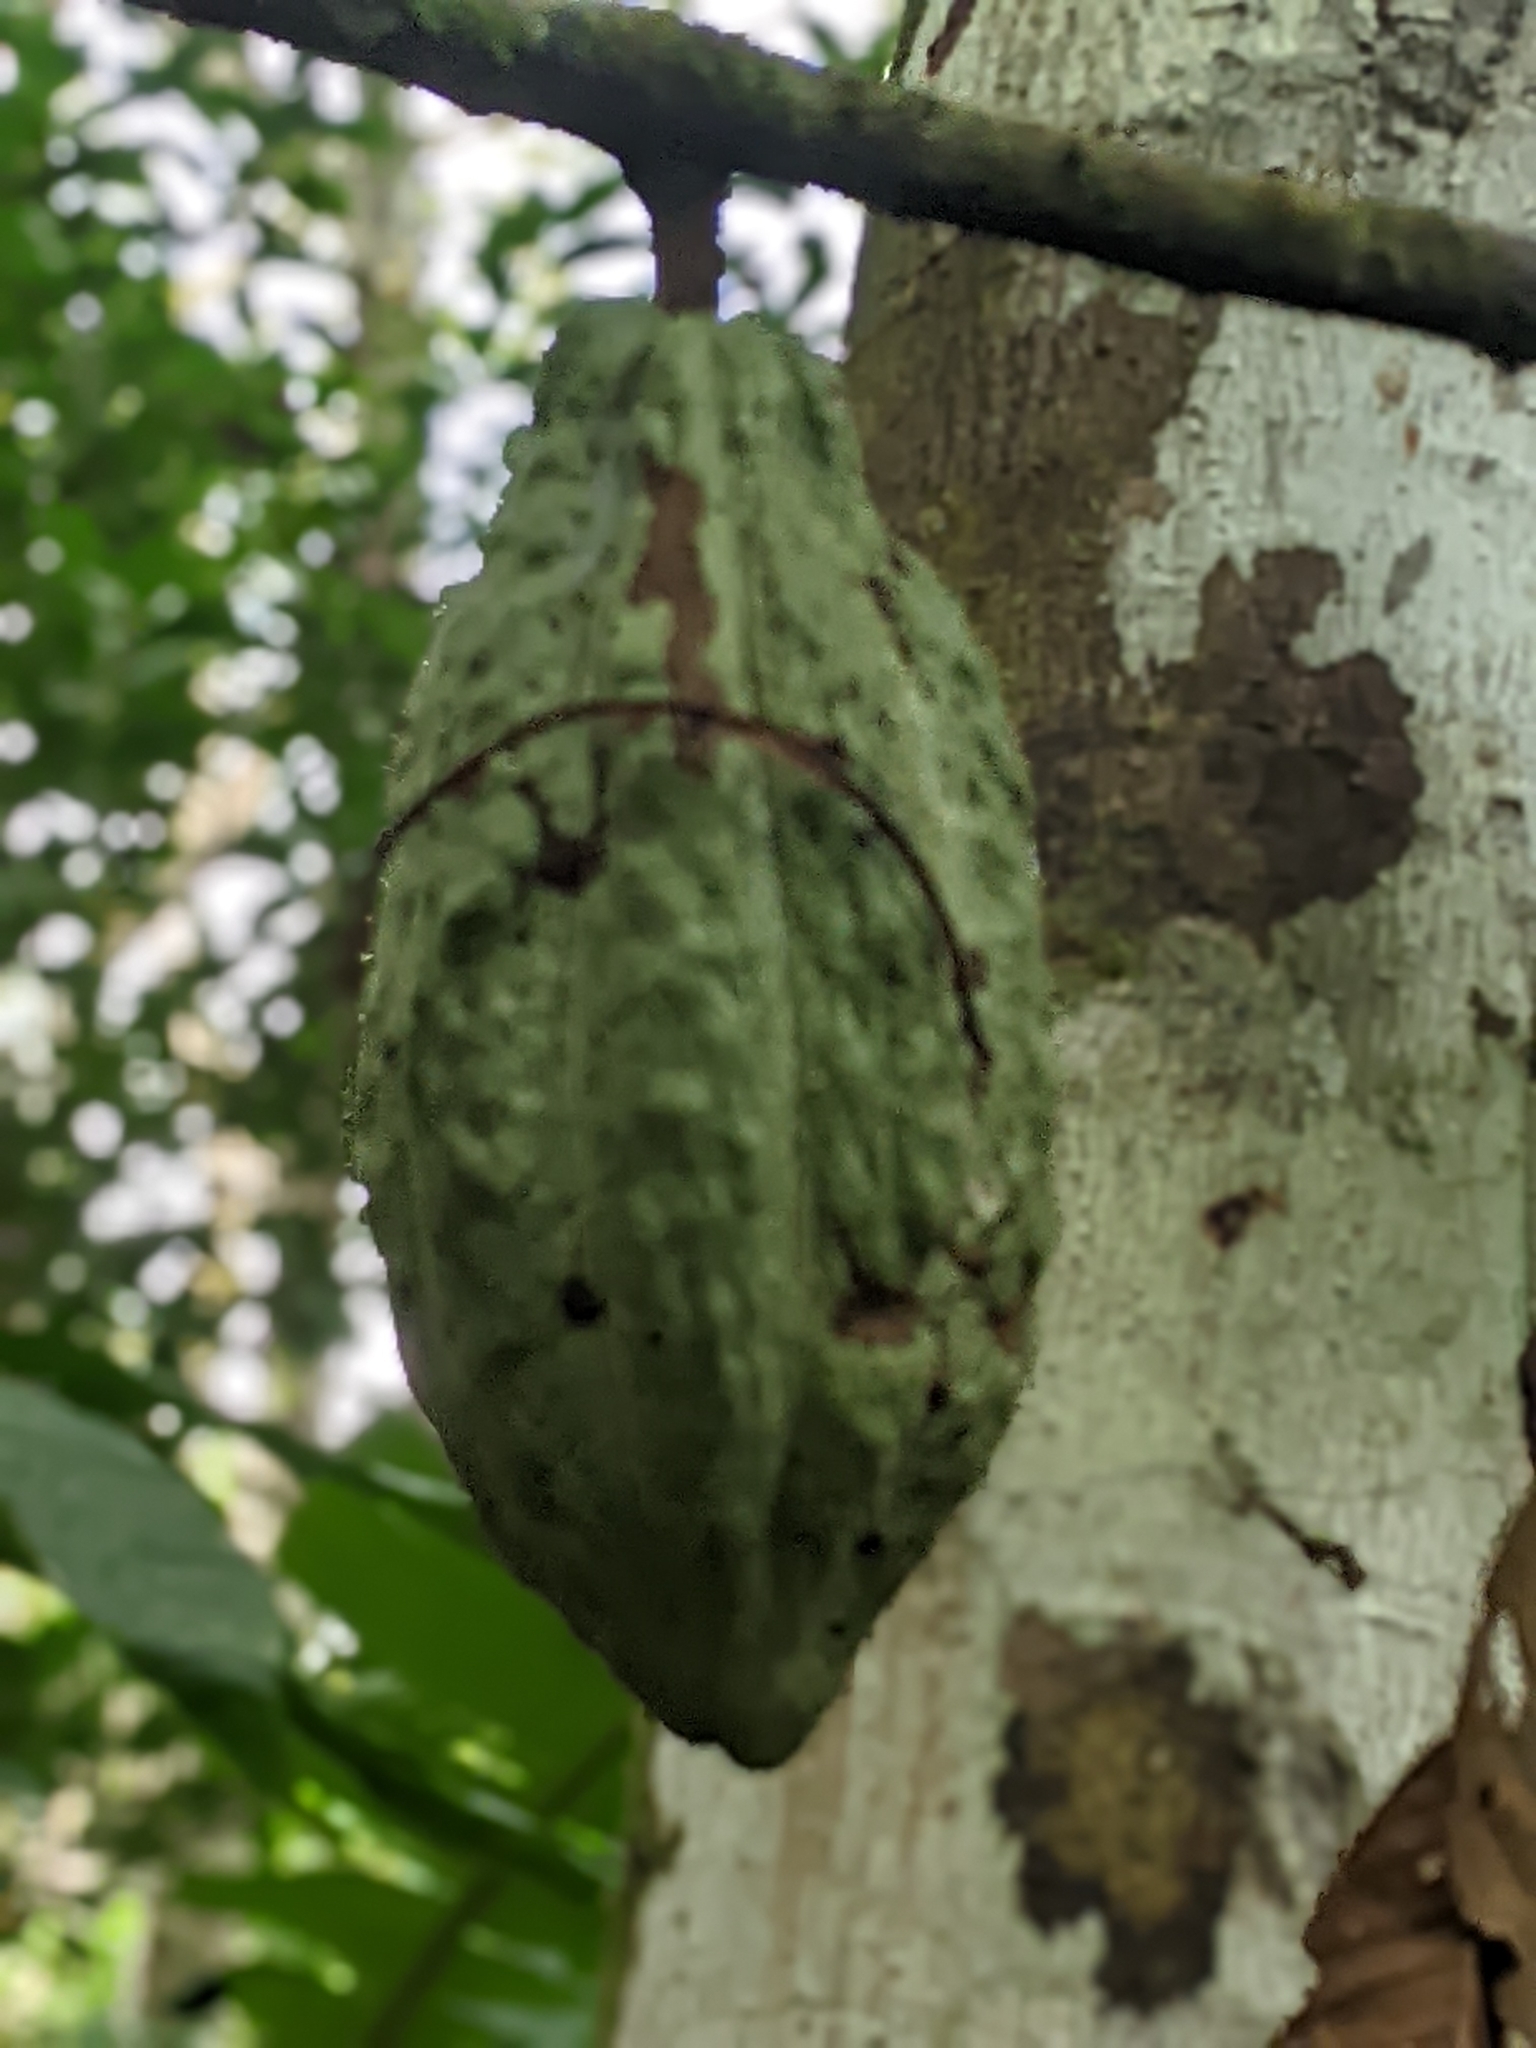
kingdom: Plantae
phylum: Tracheophyta
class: Magnoliopsida
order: Malvales
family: Malvaceae
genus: Theobroma
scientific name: Theobroma cacao
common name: Cocoa
